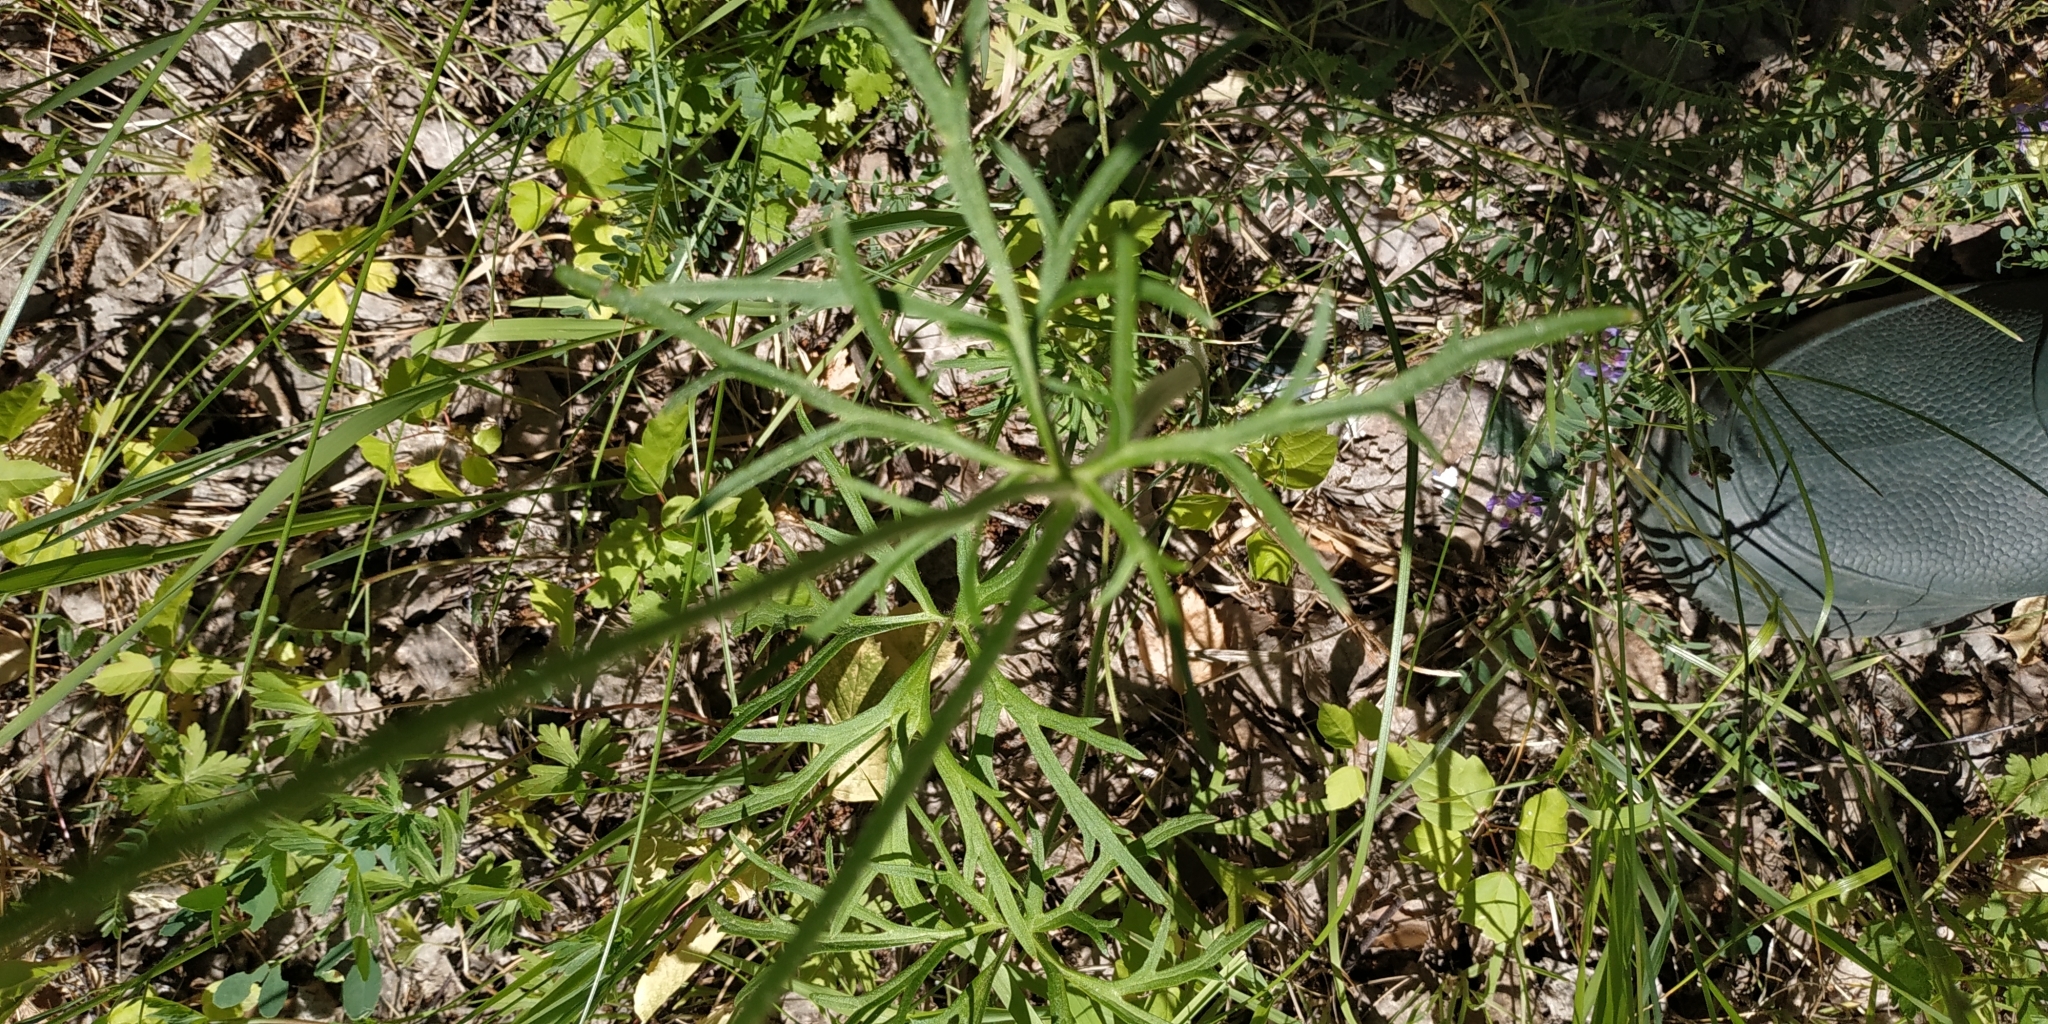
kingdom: Plantae
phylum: Tracheophyta
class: Magnoliopsida
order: Ranunculales
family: Ranunculaceae
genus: Ranunculus
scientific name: Ranunculus polyanthemos
